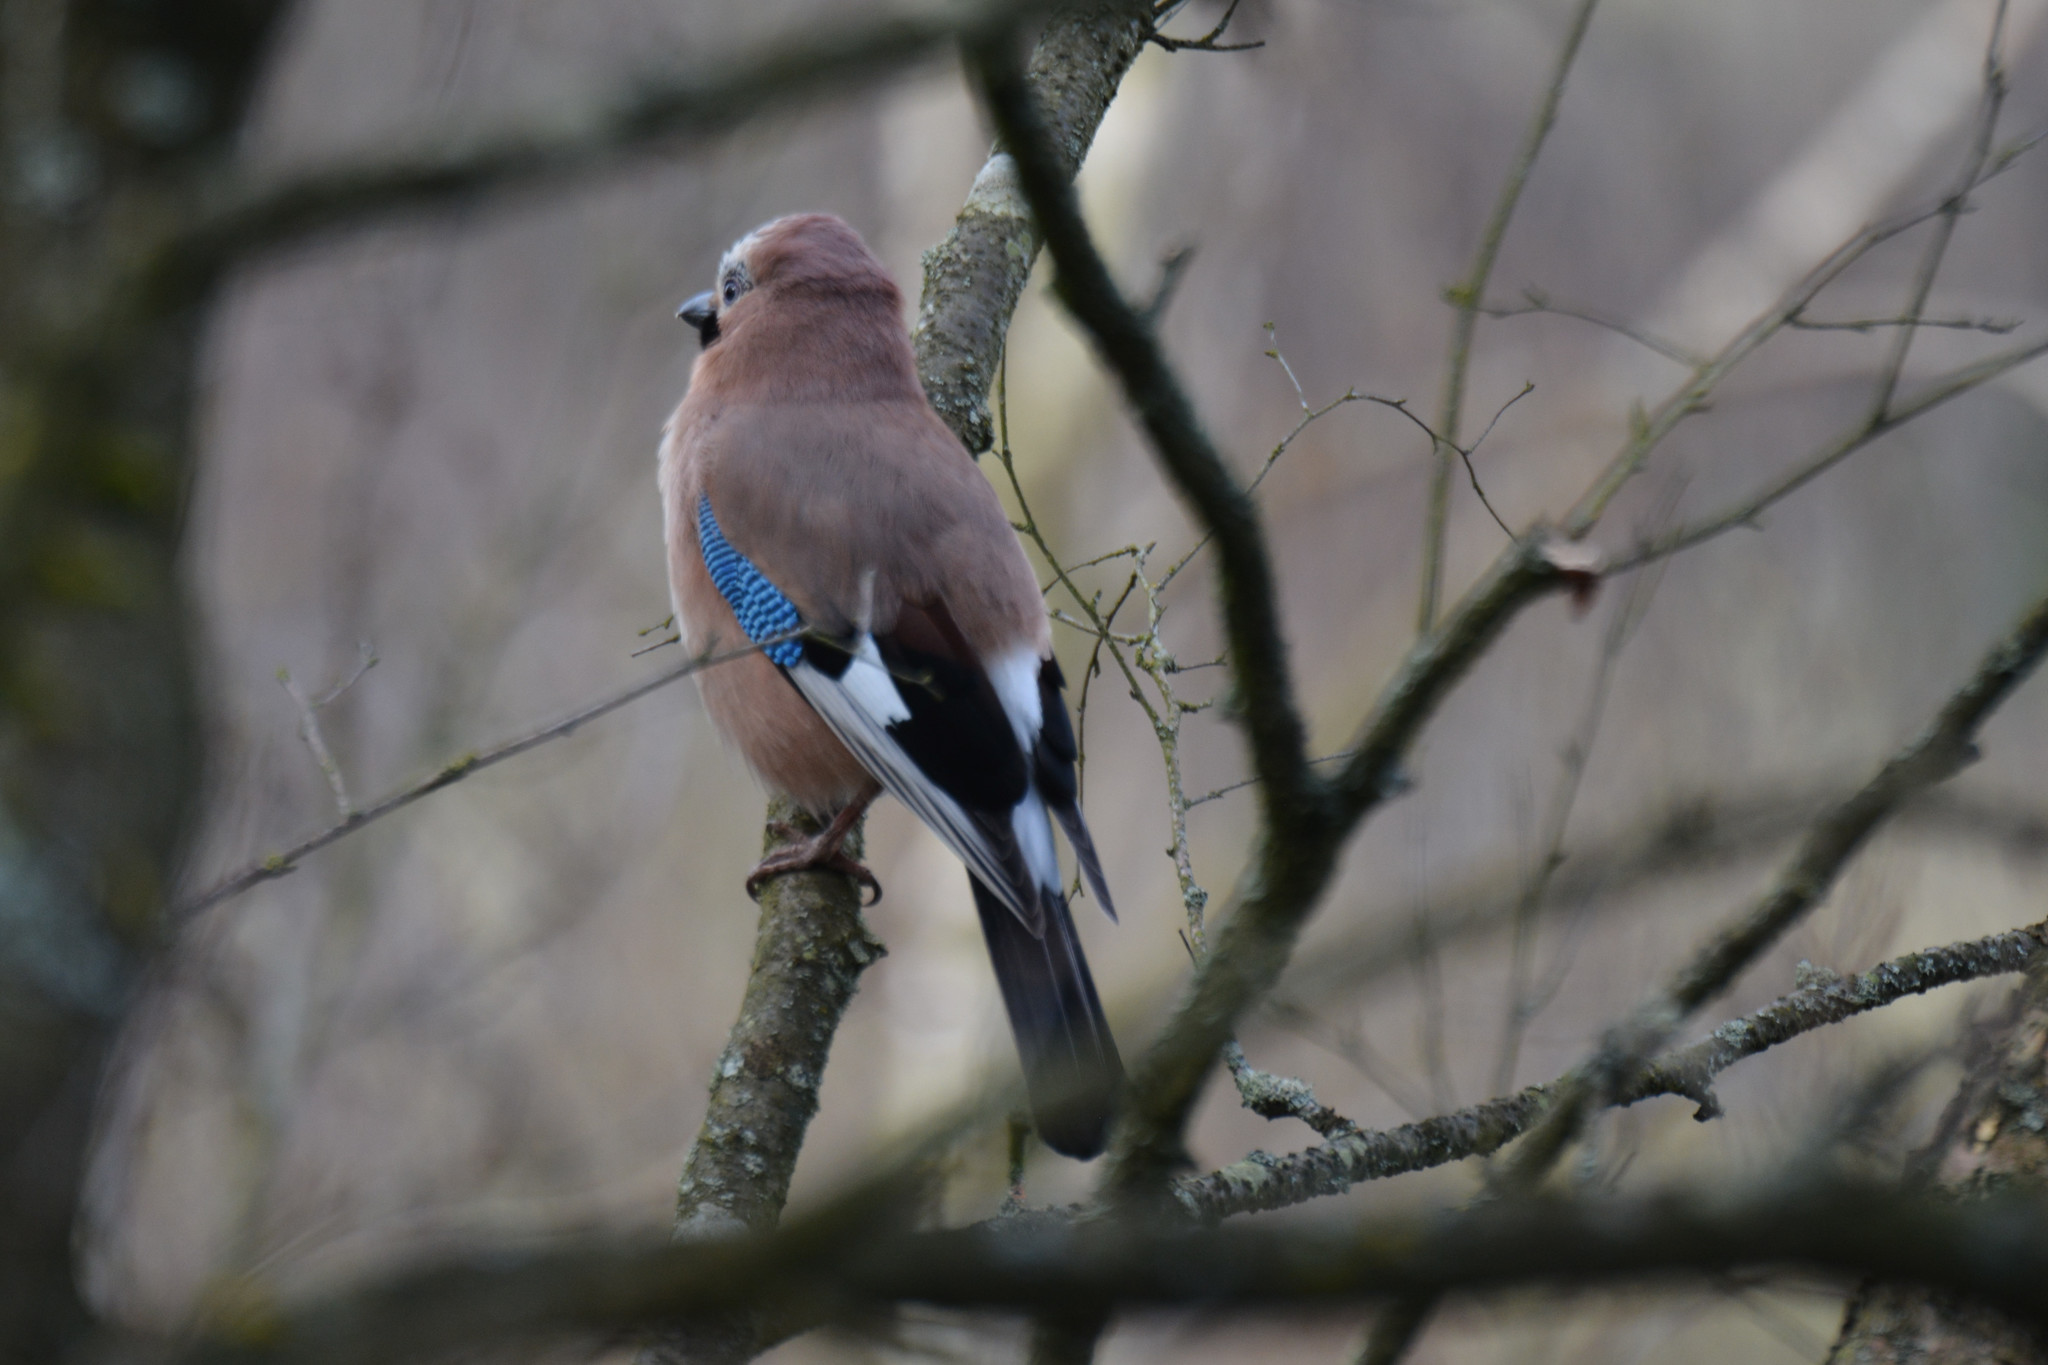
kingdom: Animalia
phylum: Chordata
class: Aves
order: Passeriformes
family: Corvidae
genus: Garrulus
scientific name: Garrulus glandarius
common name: Eurasian jay
